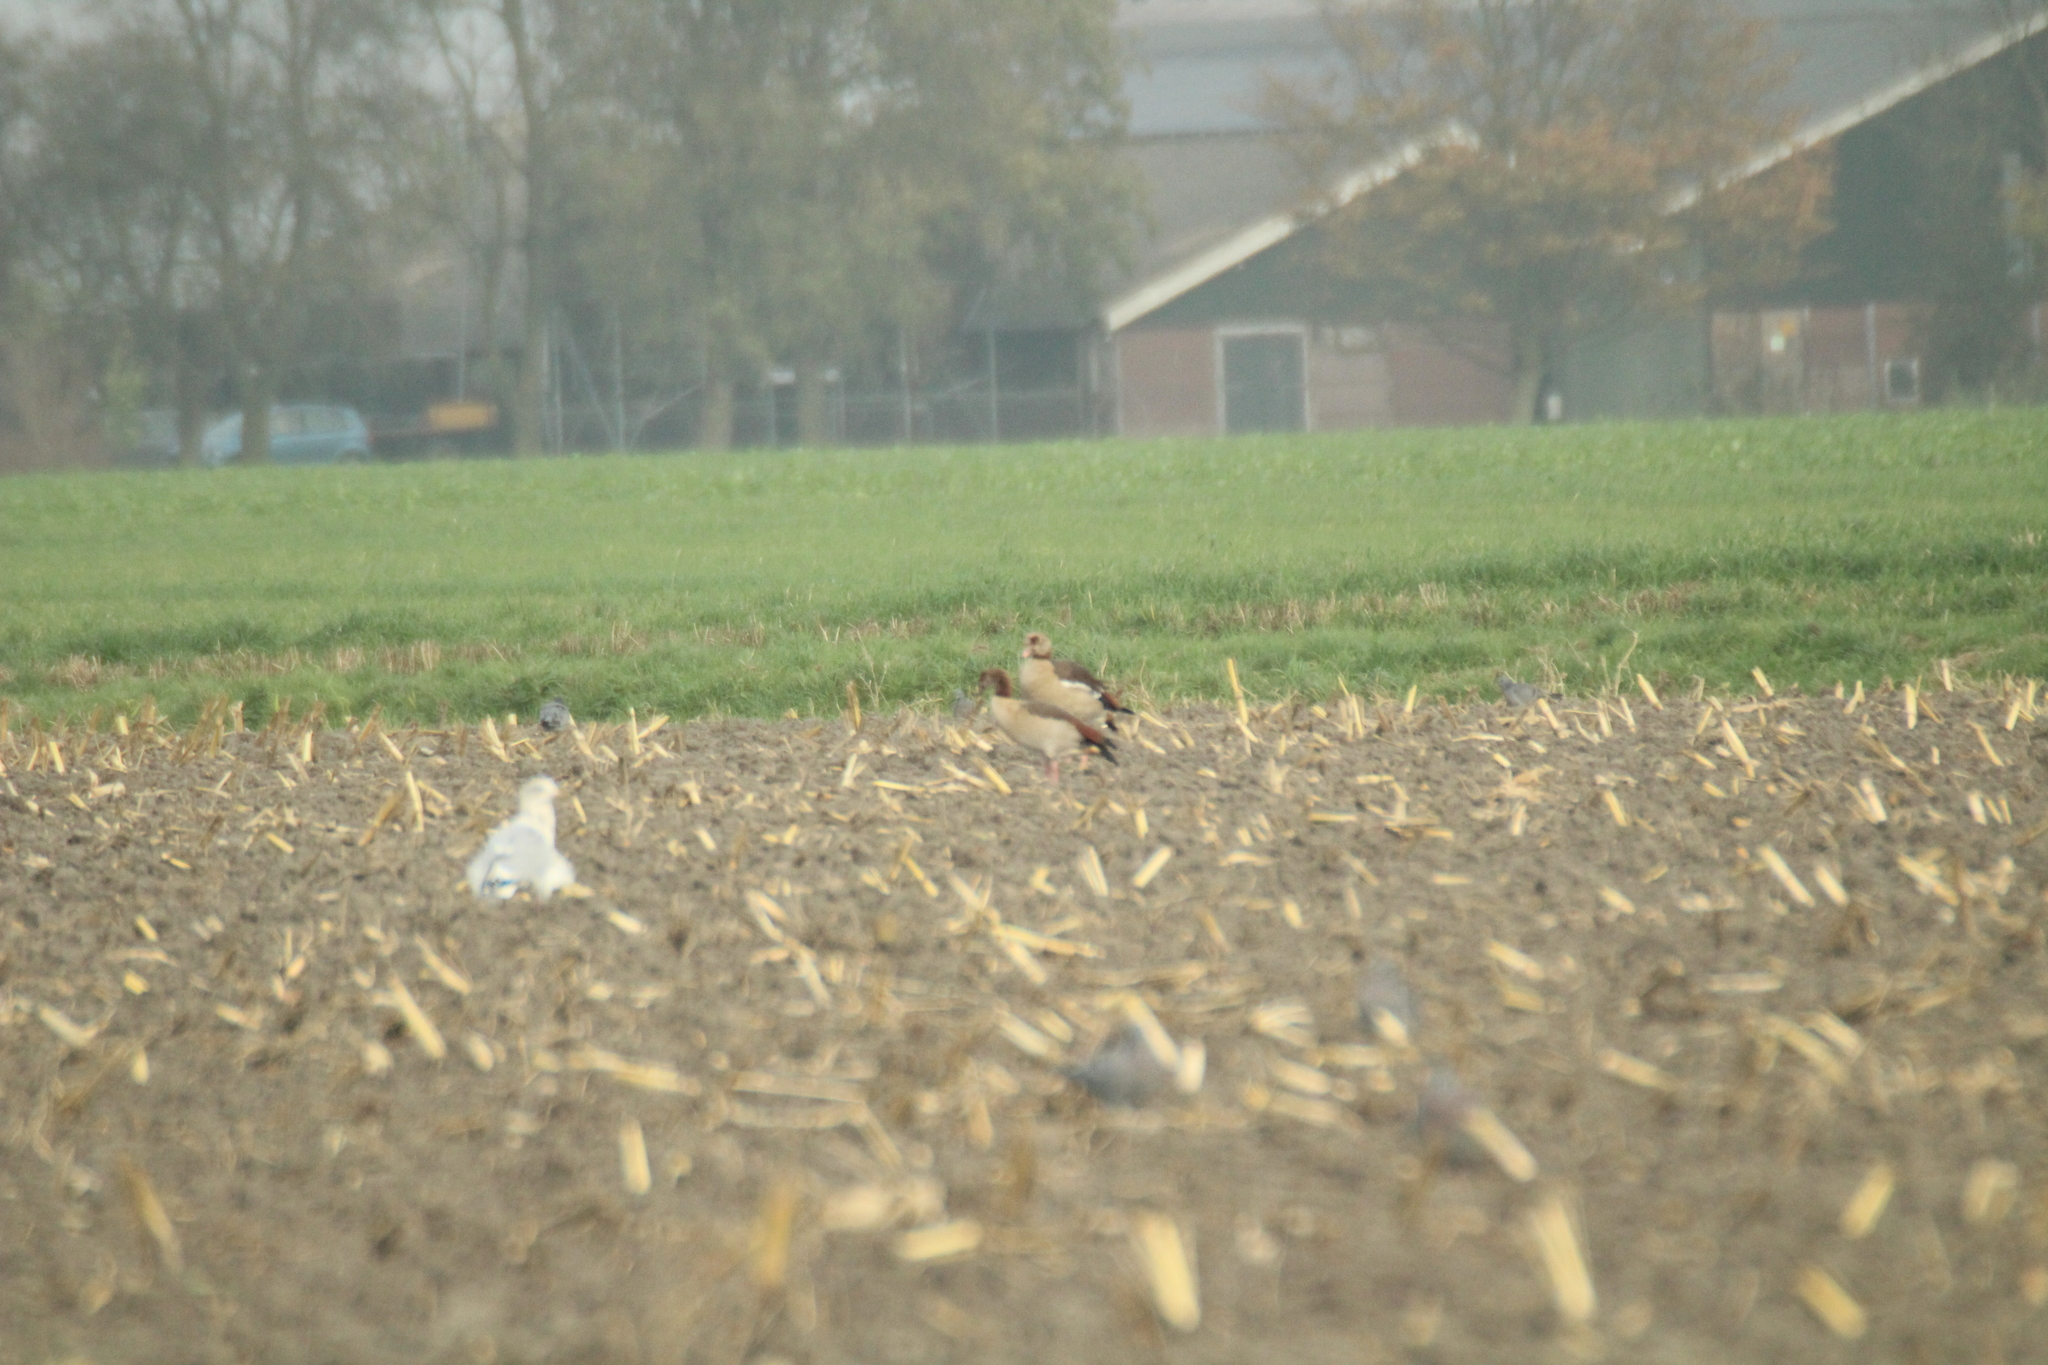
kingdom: Animalia
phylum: Chordata
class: Aves
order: Anseriformes
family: Anatidae
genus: Alopochen
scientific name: Alopochen aegyptiaca
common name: Egyptian goose
